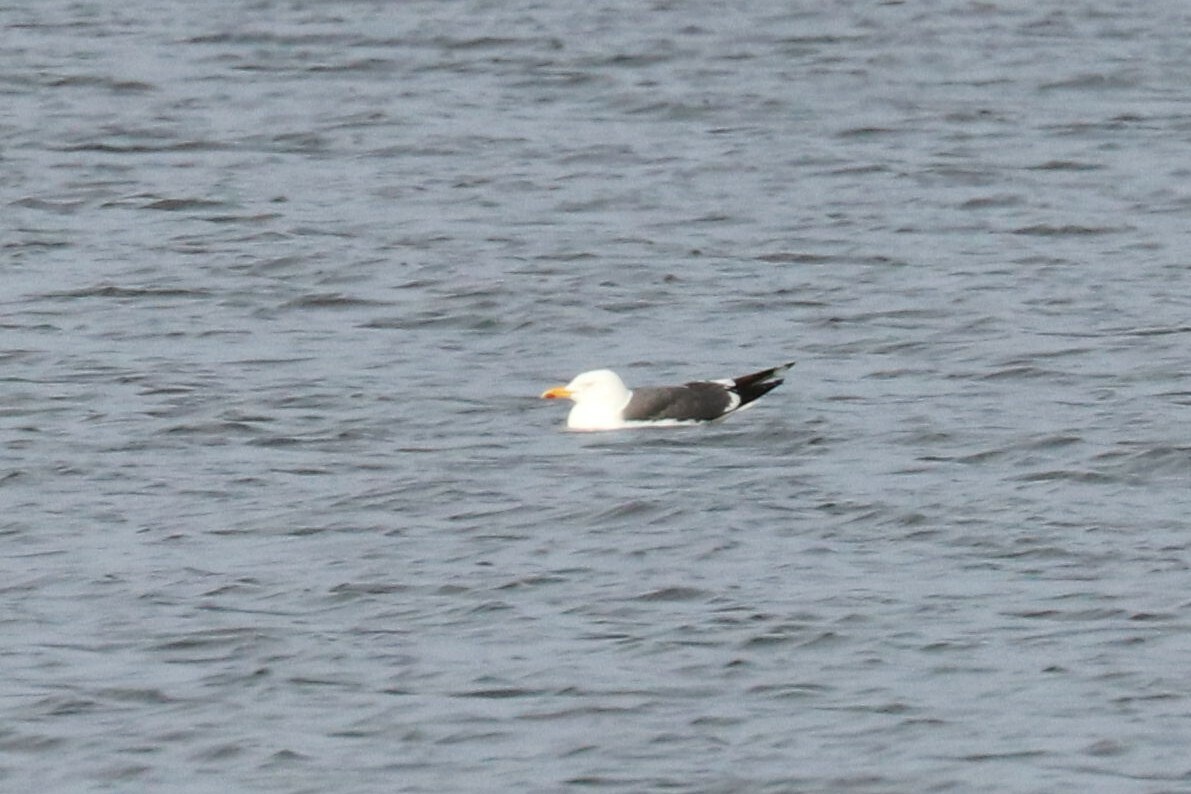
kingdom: Animalia
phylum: Chordata
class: Aves
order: Charadriiformes
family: Laridae
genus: Larus
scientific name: Larus fuscus
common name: Lesser black-backed gull
